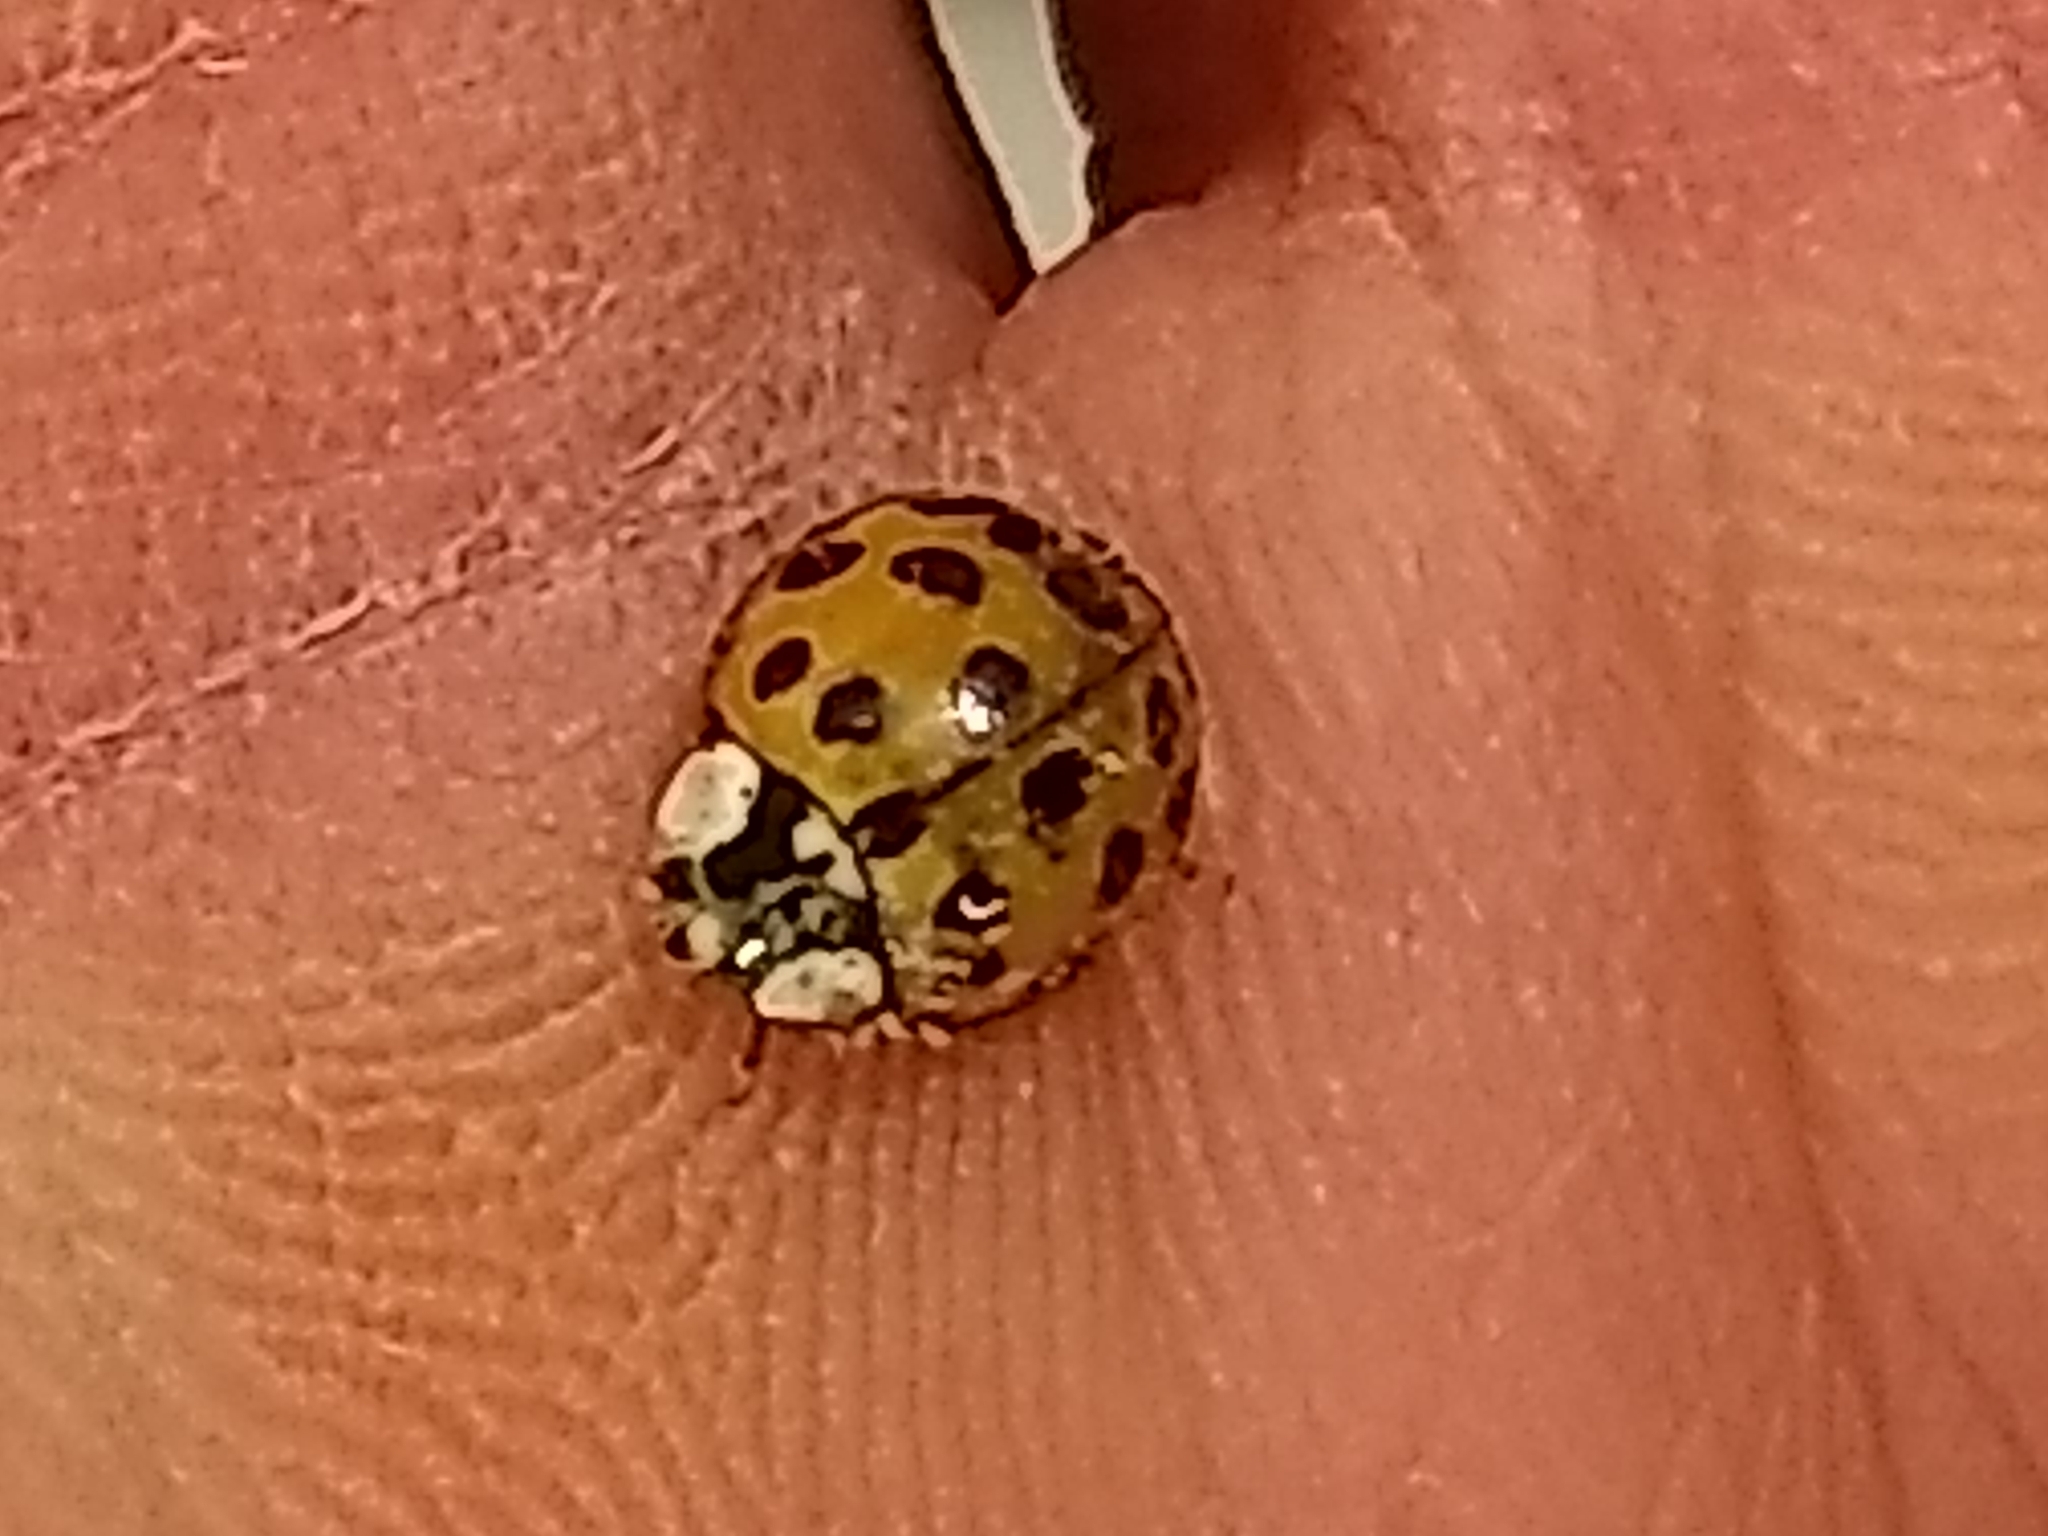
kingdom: Animalia
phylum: Arthropoda
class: Insecta
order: Coleoptera
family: Coccinellidae
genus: Harmonia
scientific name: Harmonia axyridis
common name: Harlequin ladybird
